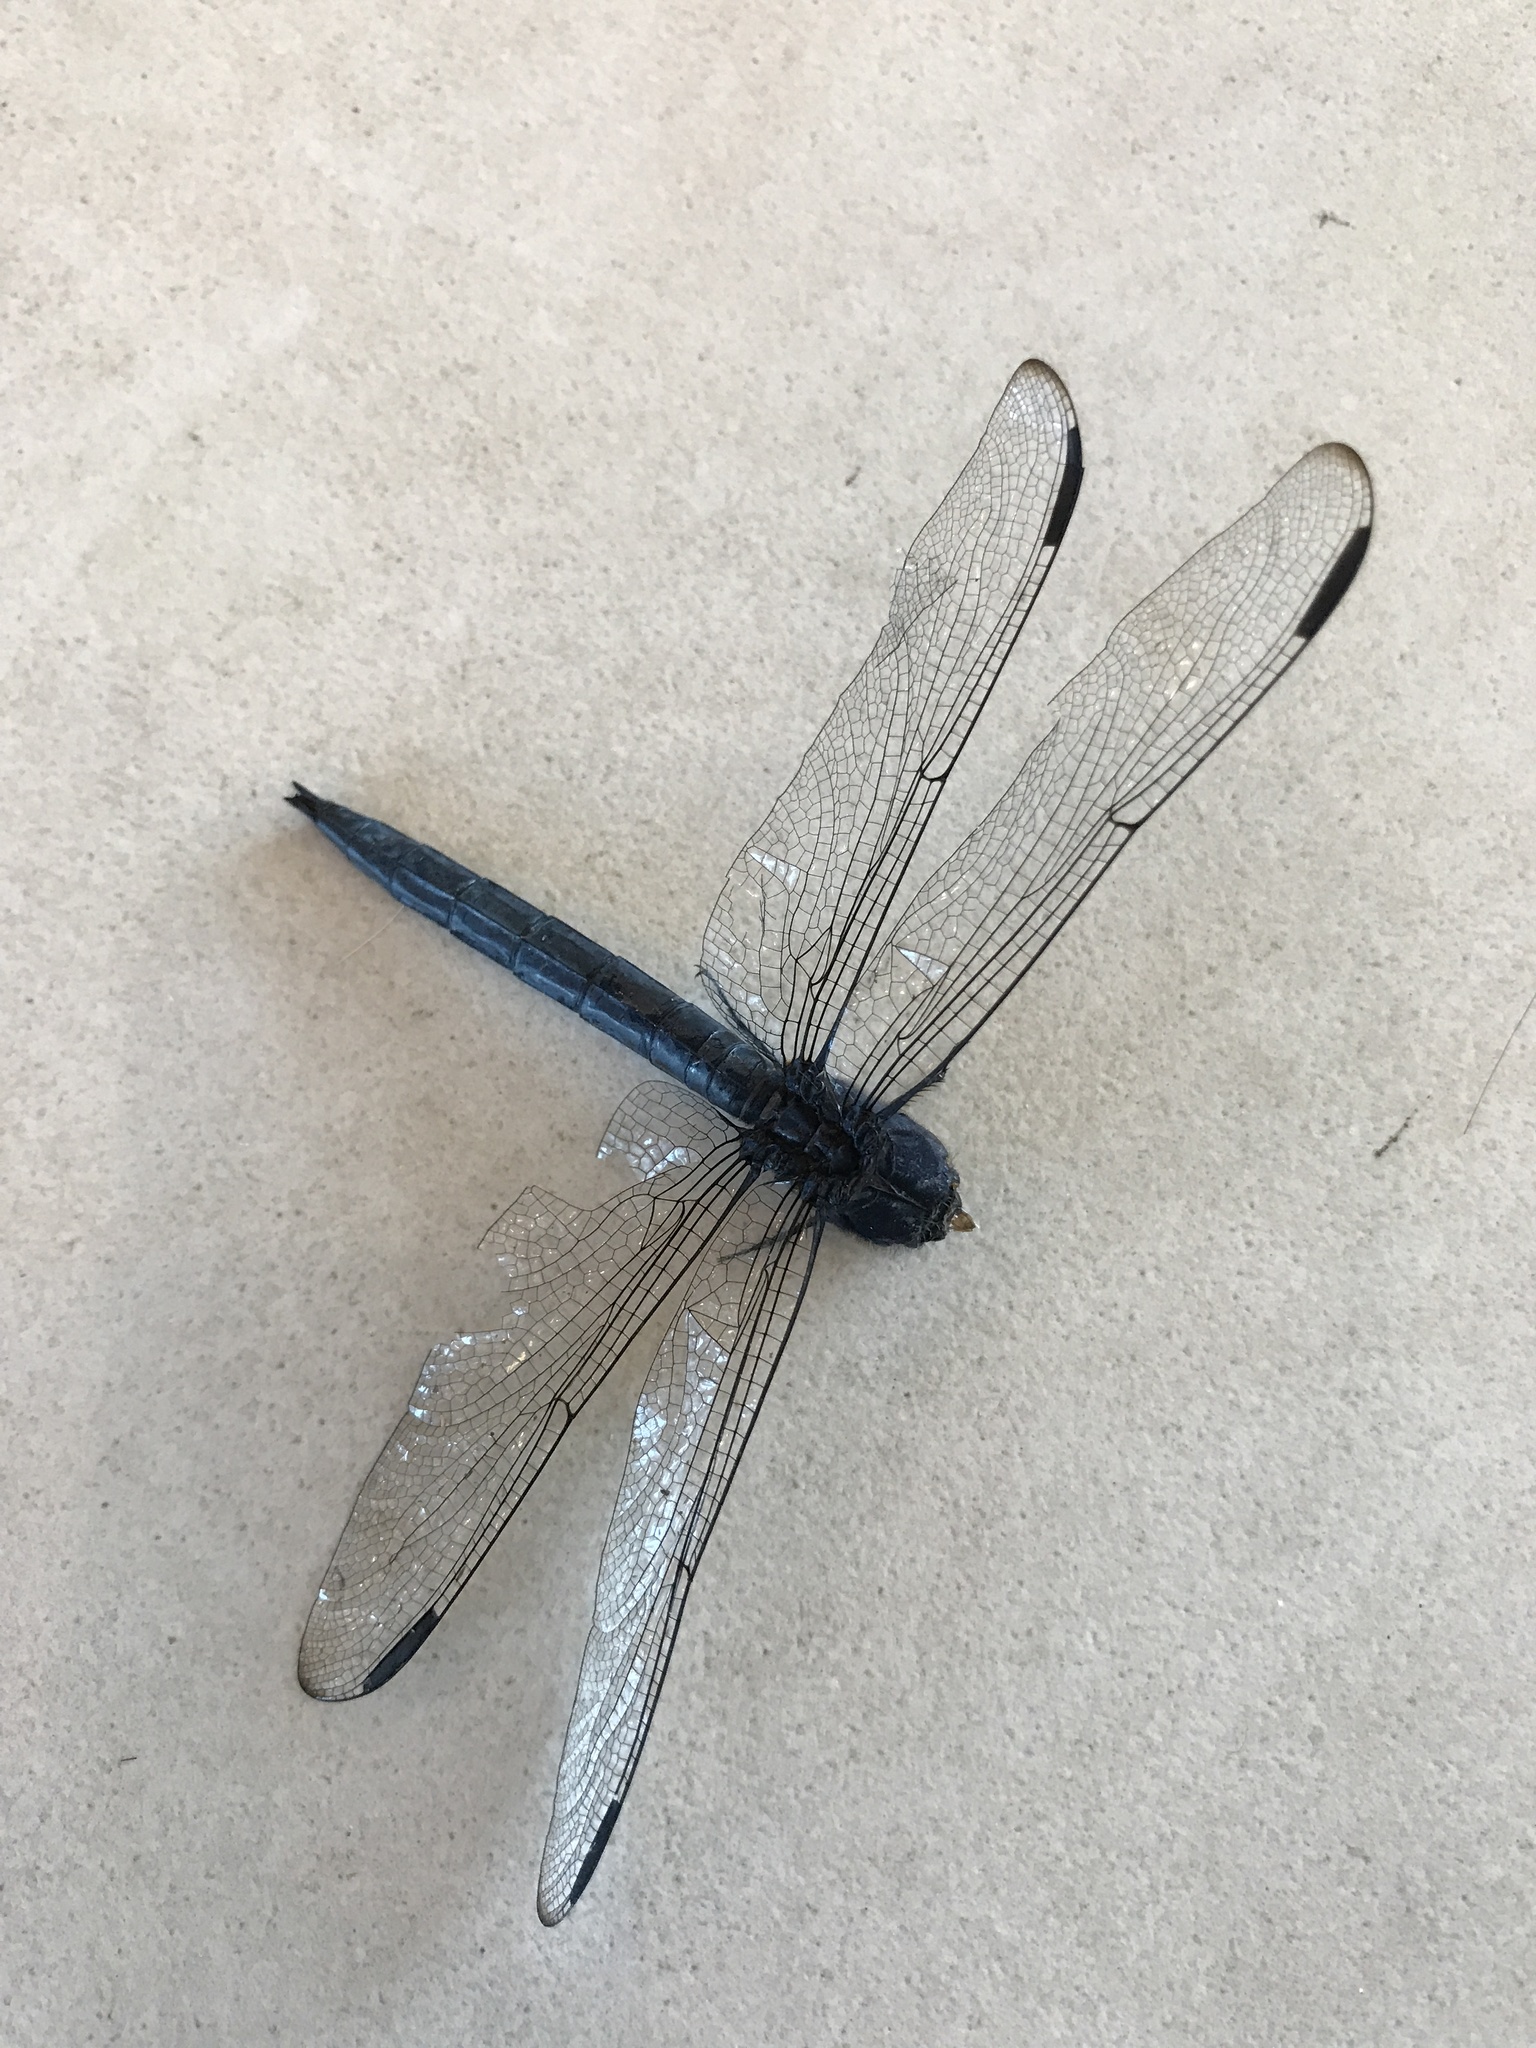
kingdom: Animalia
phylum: Arthropoda
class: Insecta
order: Odonata
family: Libellulidae
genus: Libellula
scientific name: Libellula incesta
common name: Slaty skimmer
